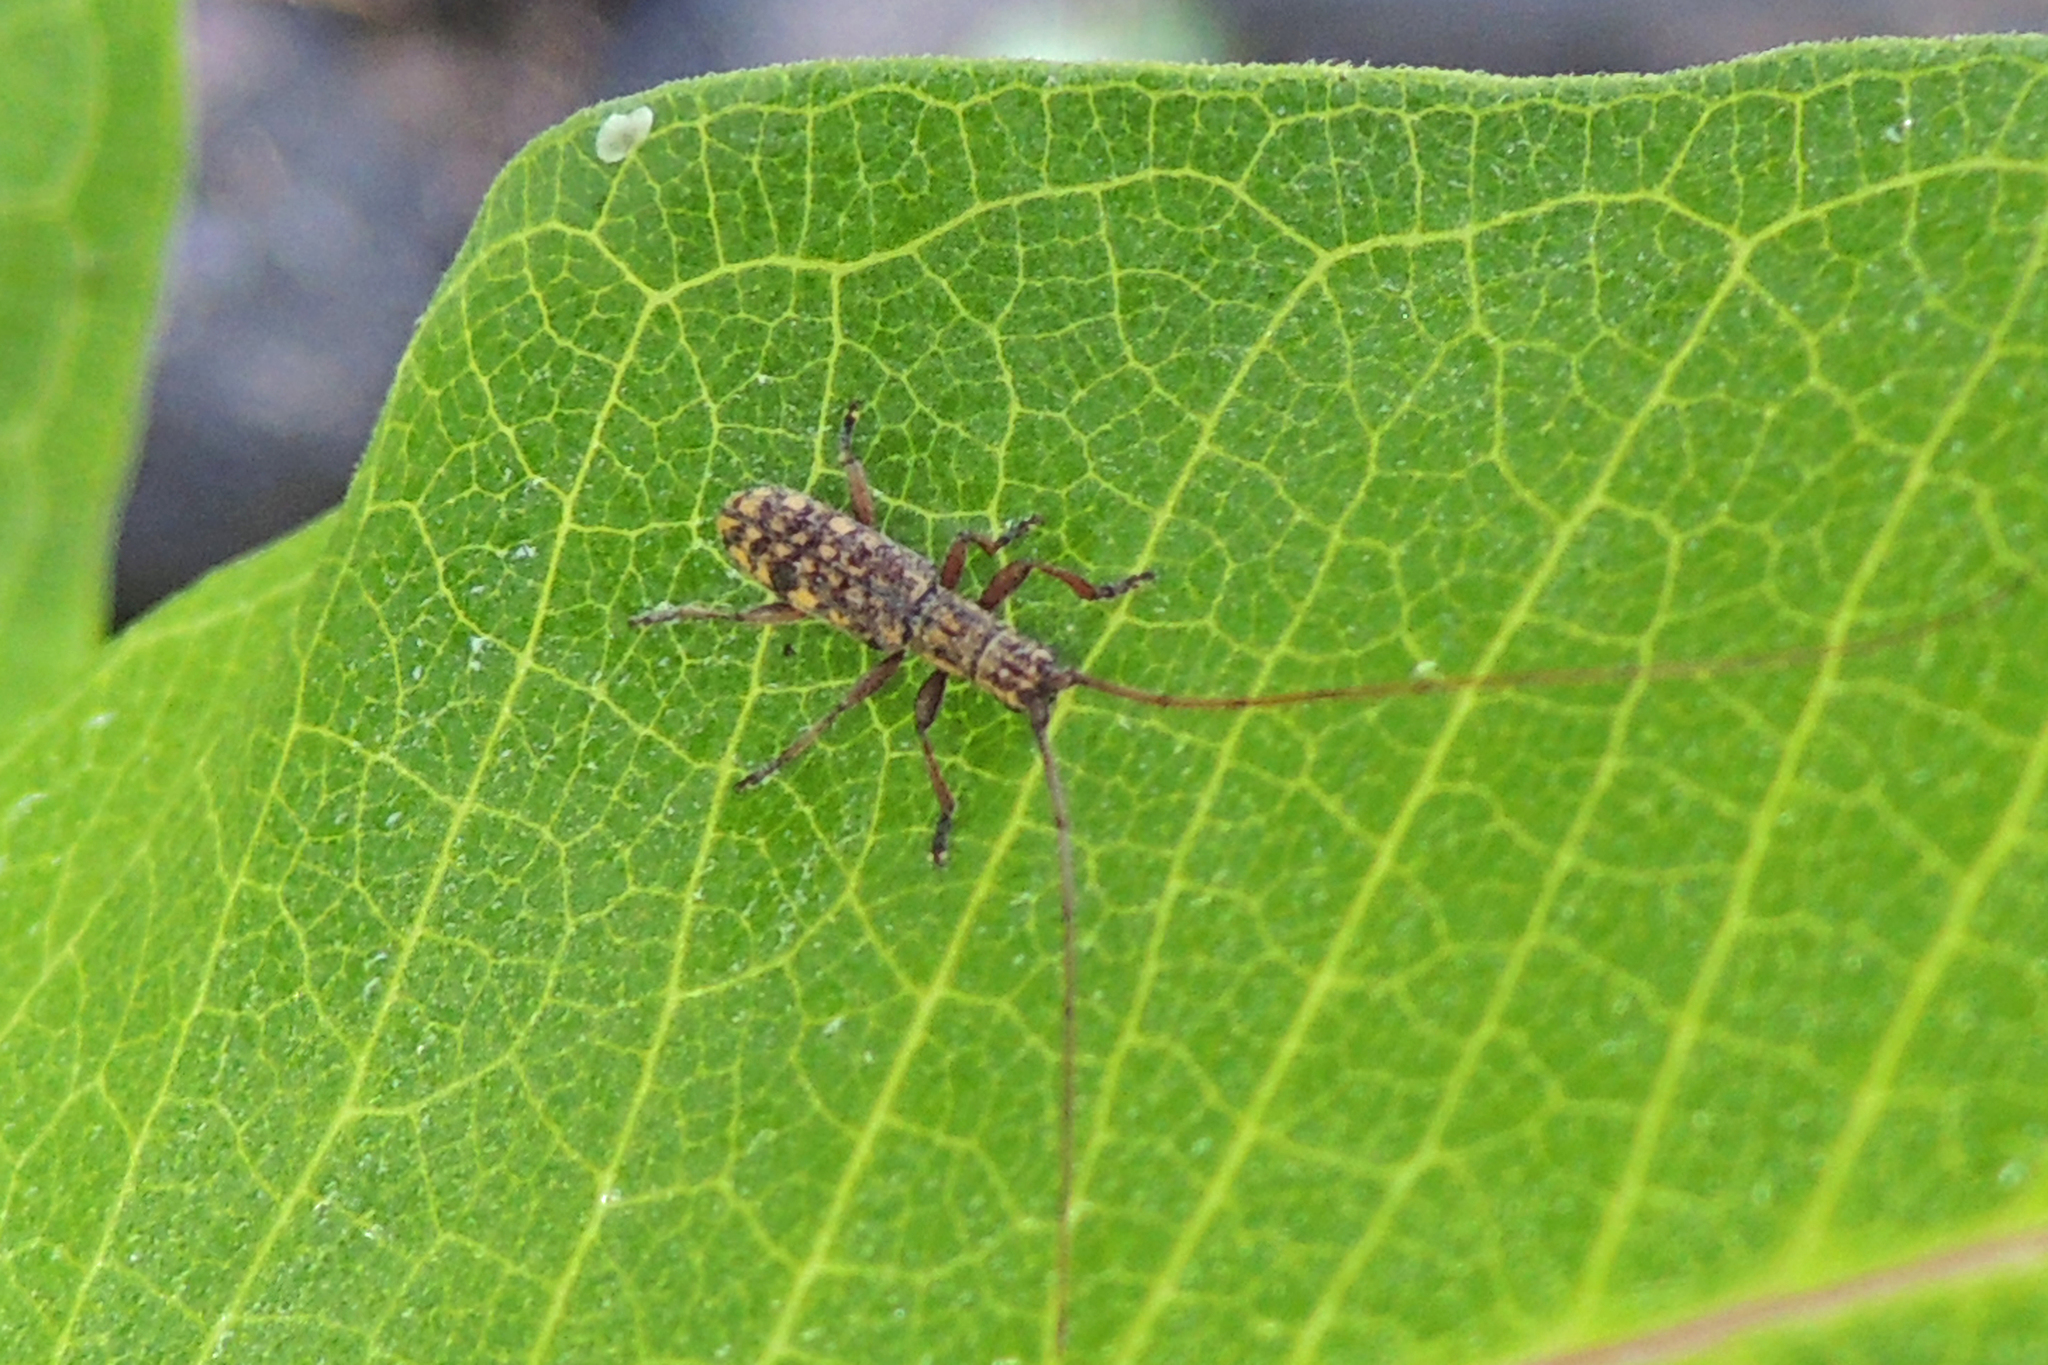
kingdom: Animalia
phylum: Arthropoda
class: Insecta
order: Coleoptera
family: Cerambycidae
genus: Dorcaschema
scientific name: Dorcaschema alternatum
